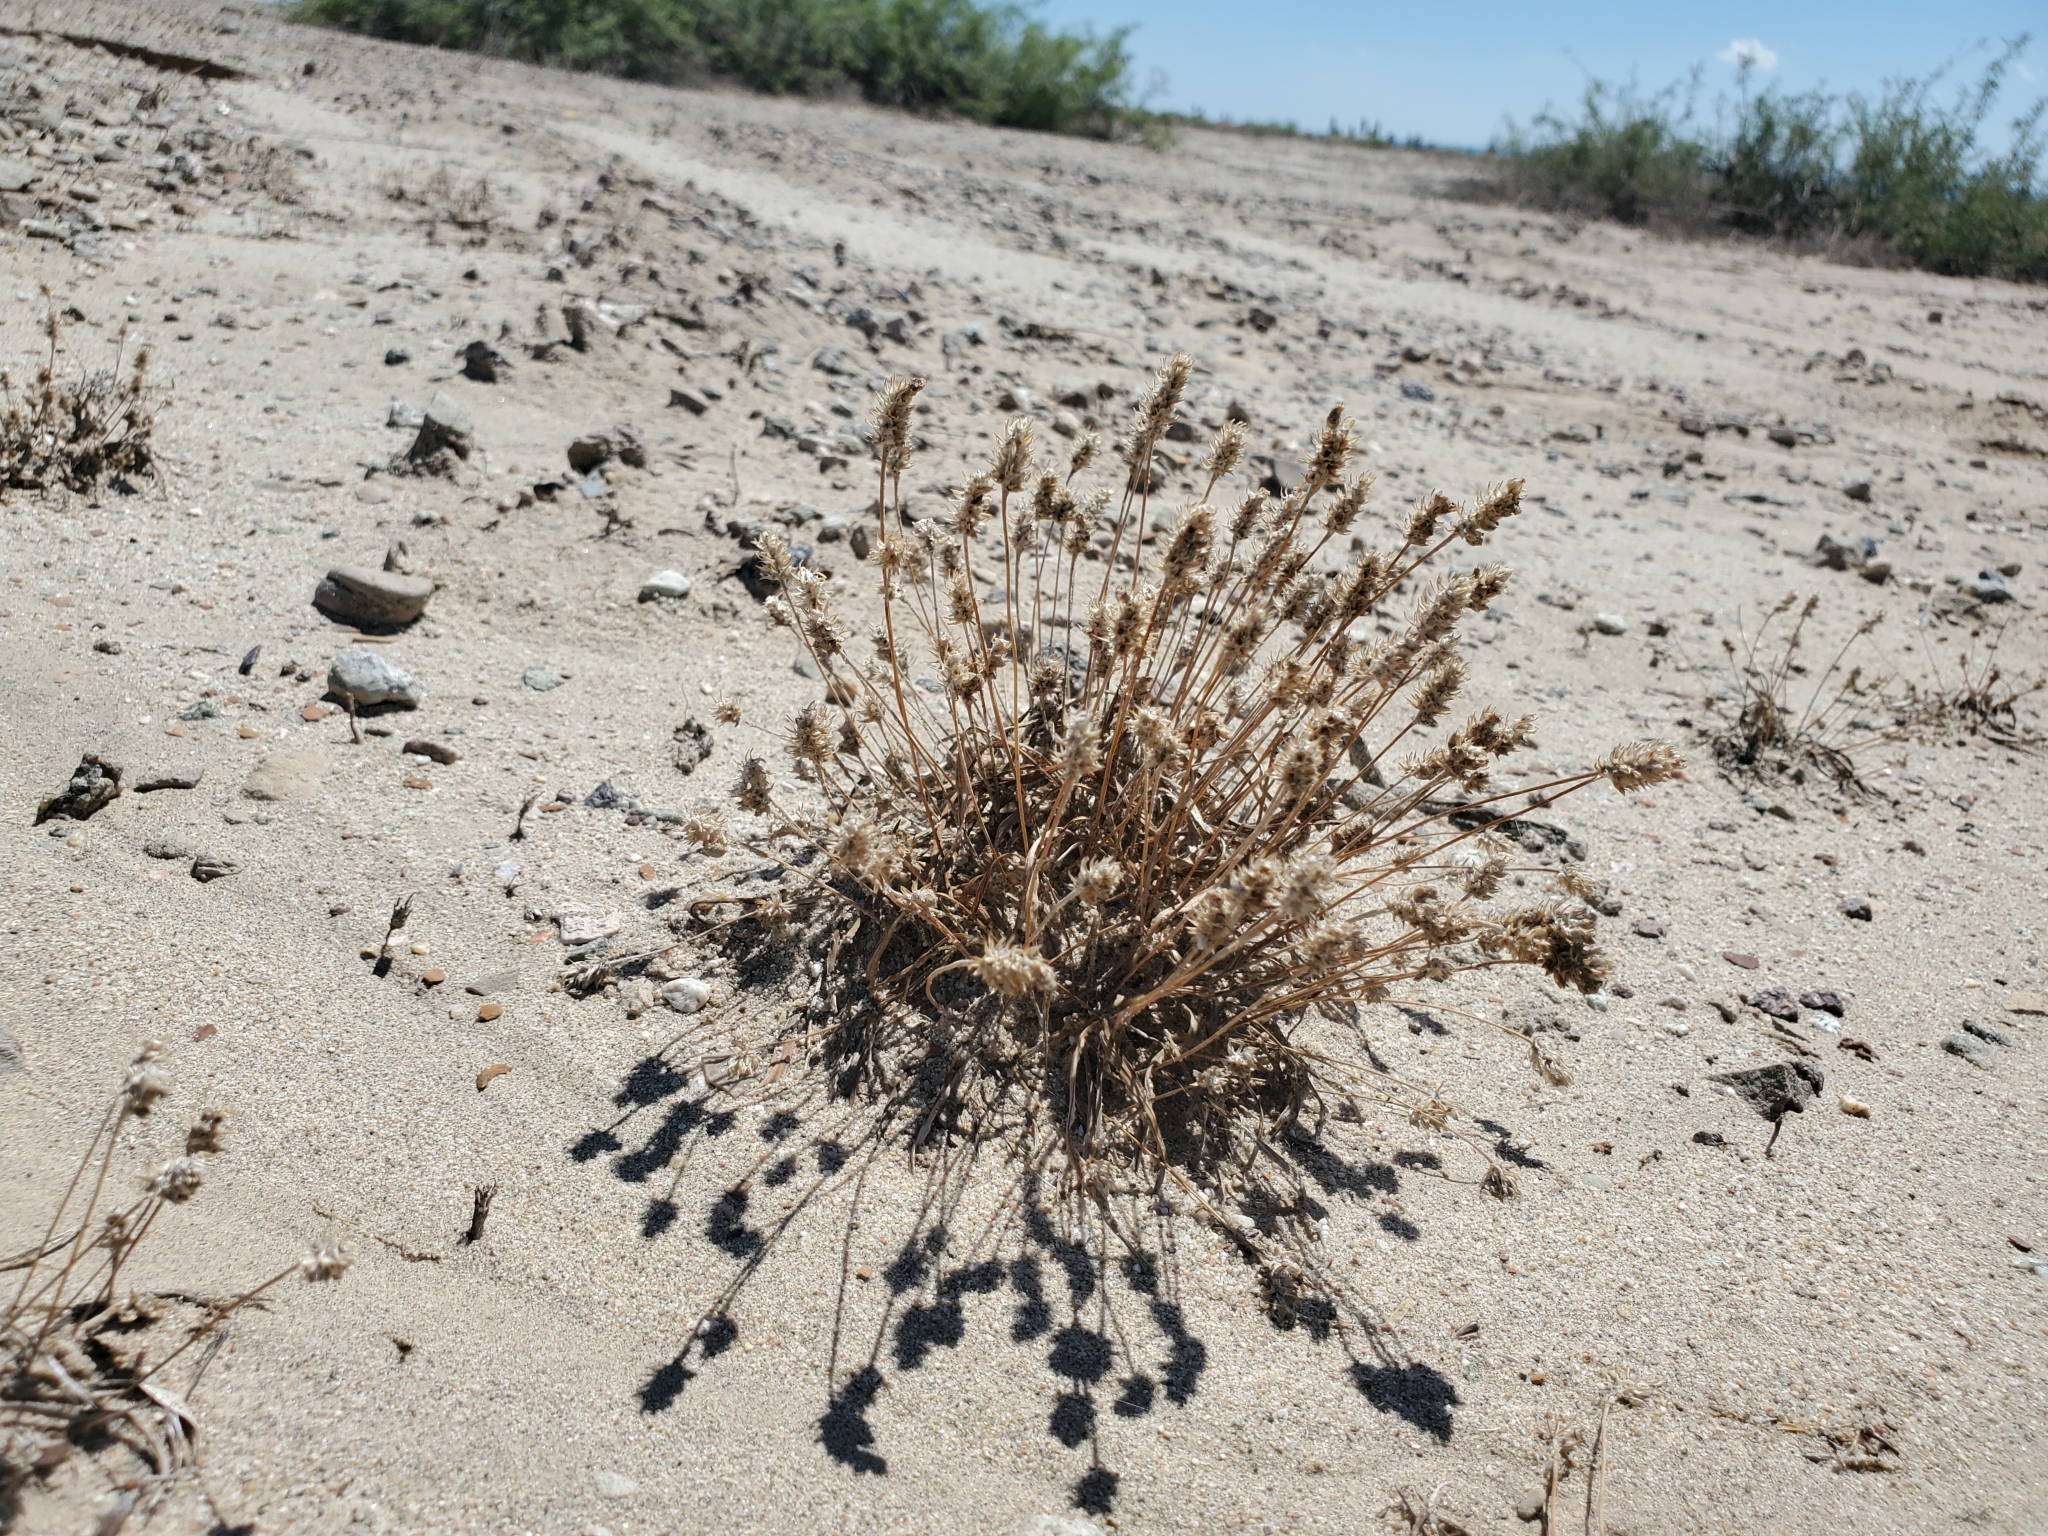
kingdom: Plantae
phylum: Tracheophyta
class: Magnoliopsida
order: Lamiales
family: Plantaginaceae
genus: Plantago
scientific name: Plantago ovata
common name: Blond plantain
